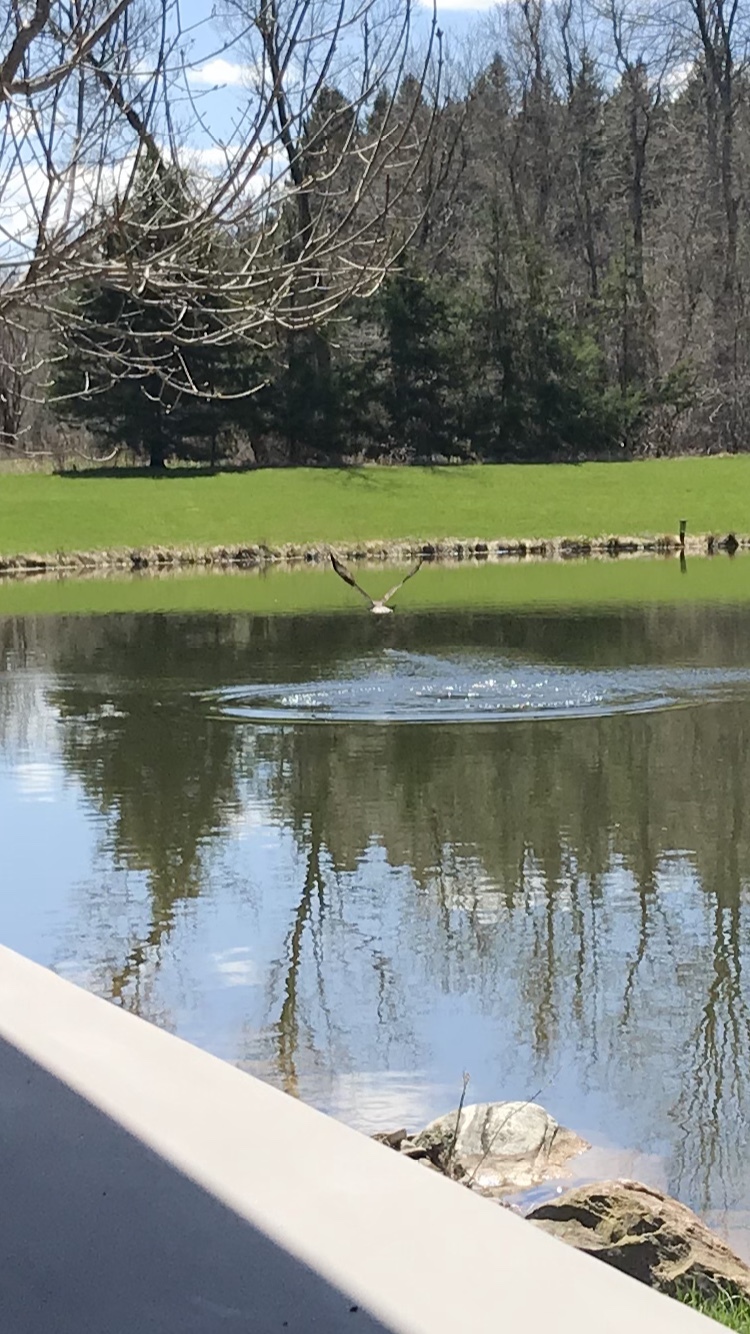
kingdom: Animalia
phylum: Chordata
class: Aves
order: Accipitriformes
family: Pandionidae
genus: Pandion
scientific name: Pandion haliaetus
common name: Osprey
